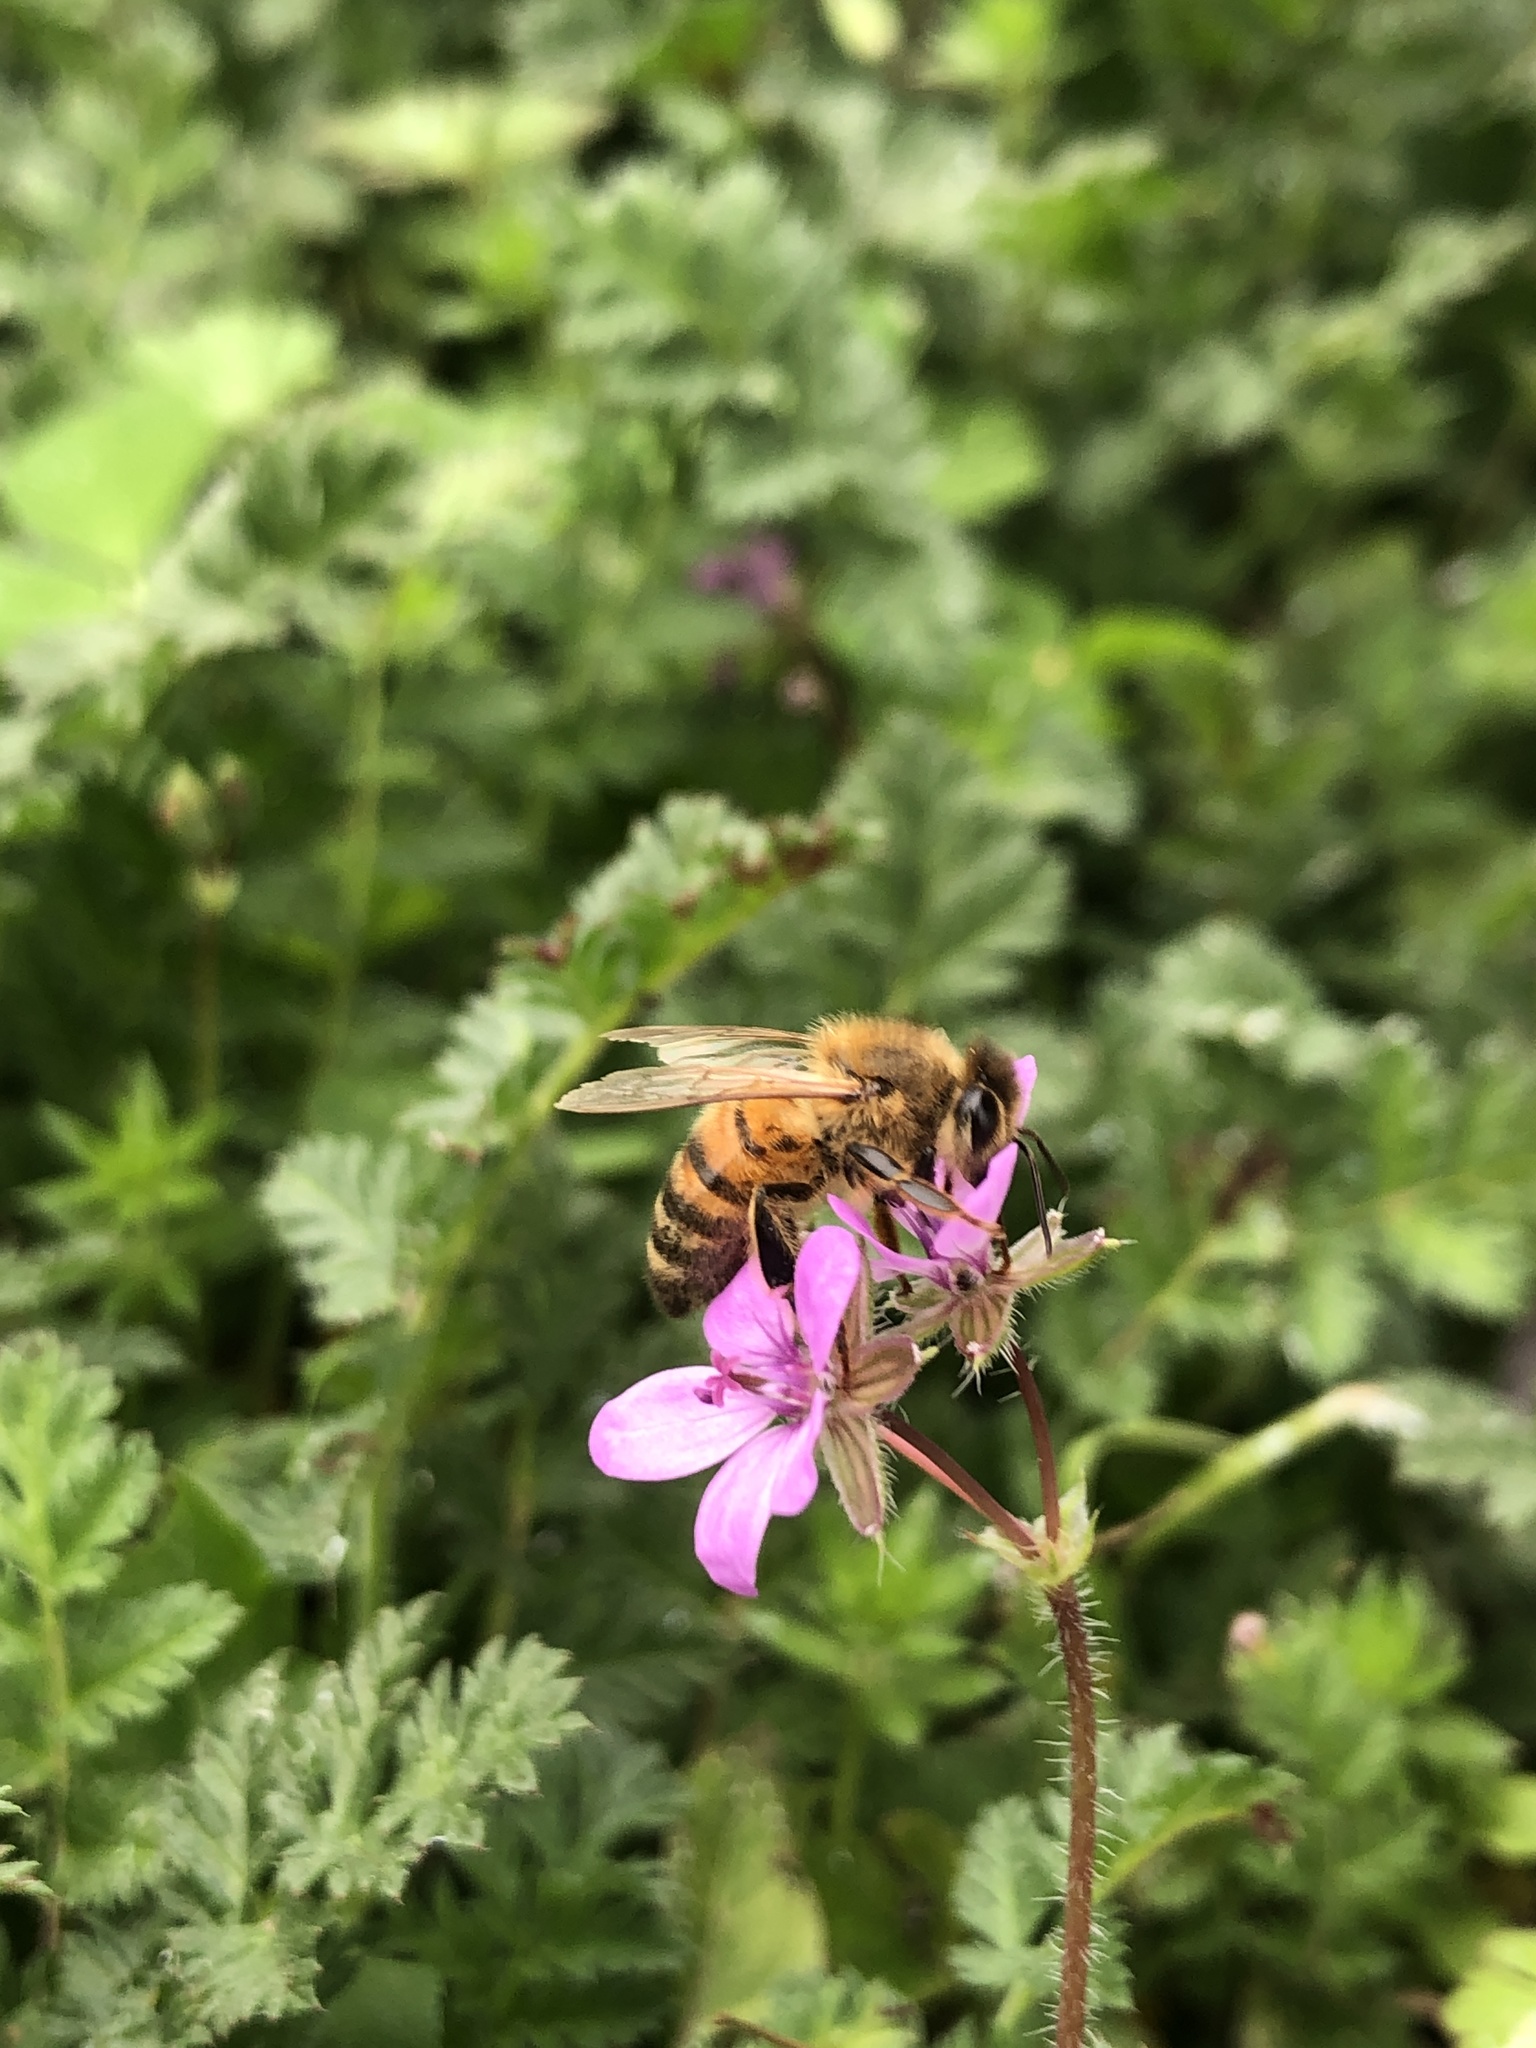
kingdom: Animalia
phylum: Arthropoda
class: Insecta
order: Hymenoptera
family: Apidae
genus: Apis
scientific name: Apis mellifera
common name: Honey bee
